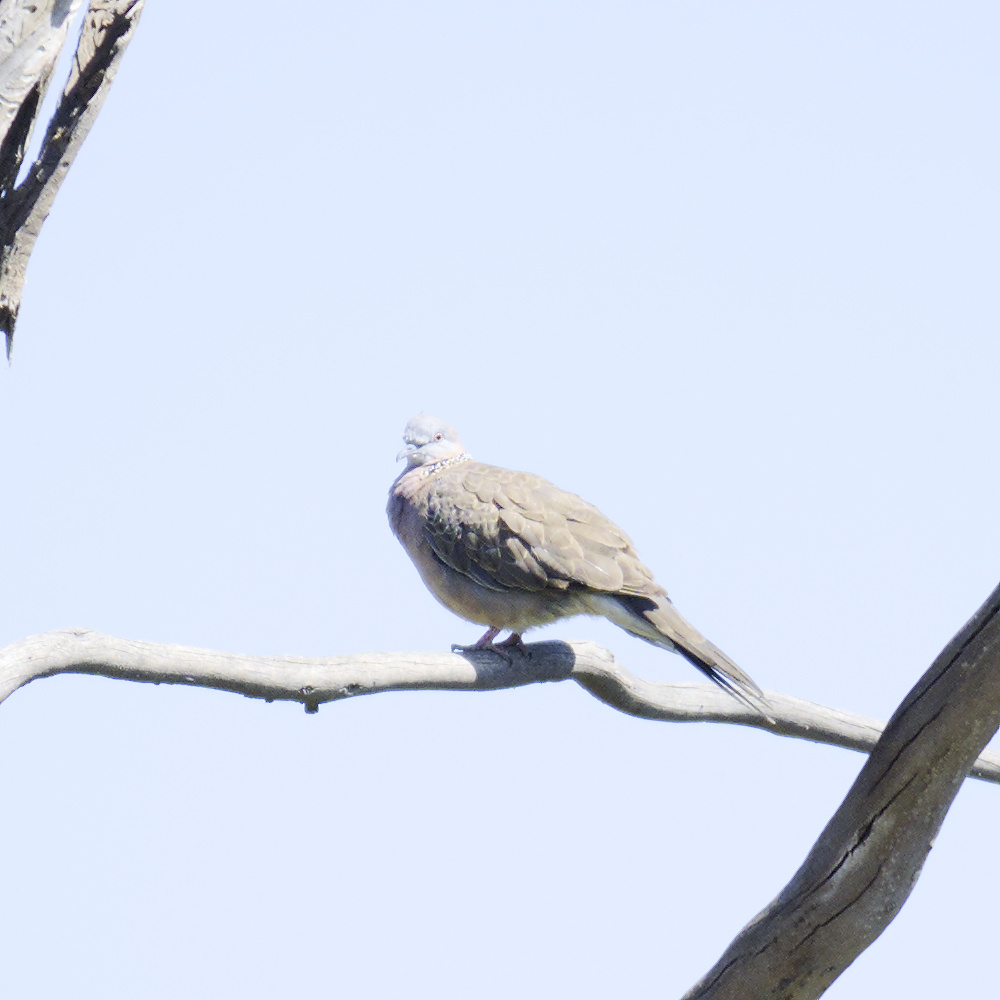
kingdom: Animalia
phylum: Chordata
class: Aves
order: Columbiformes
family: Columbidae
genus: Spilopelia
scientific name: Spilopelia chinensis
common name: Spotted dove
